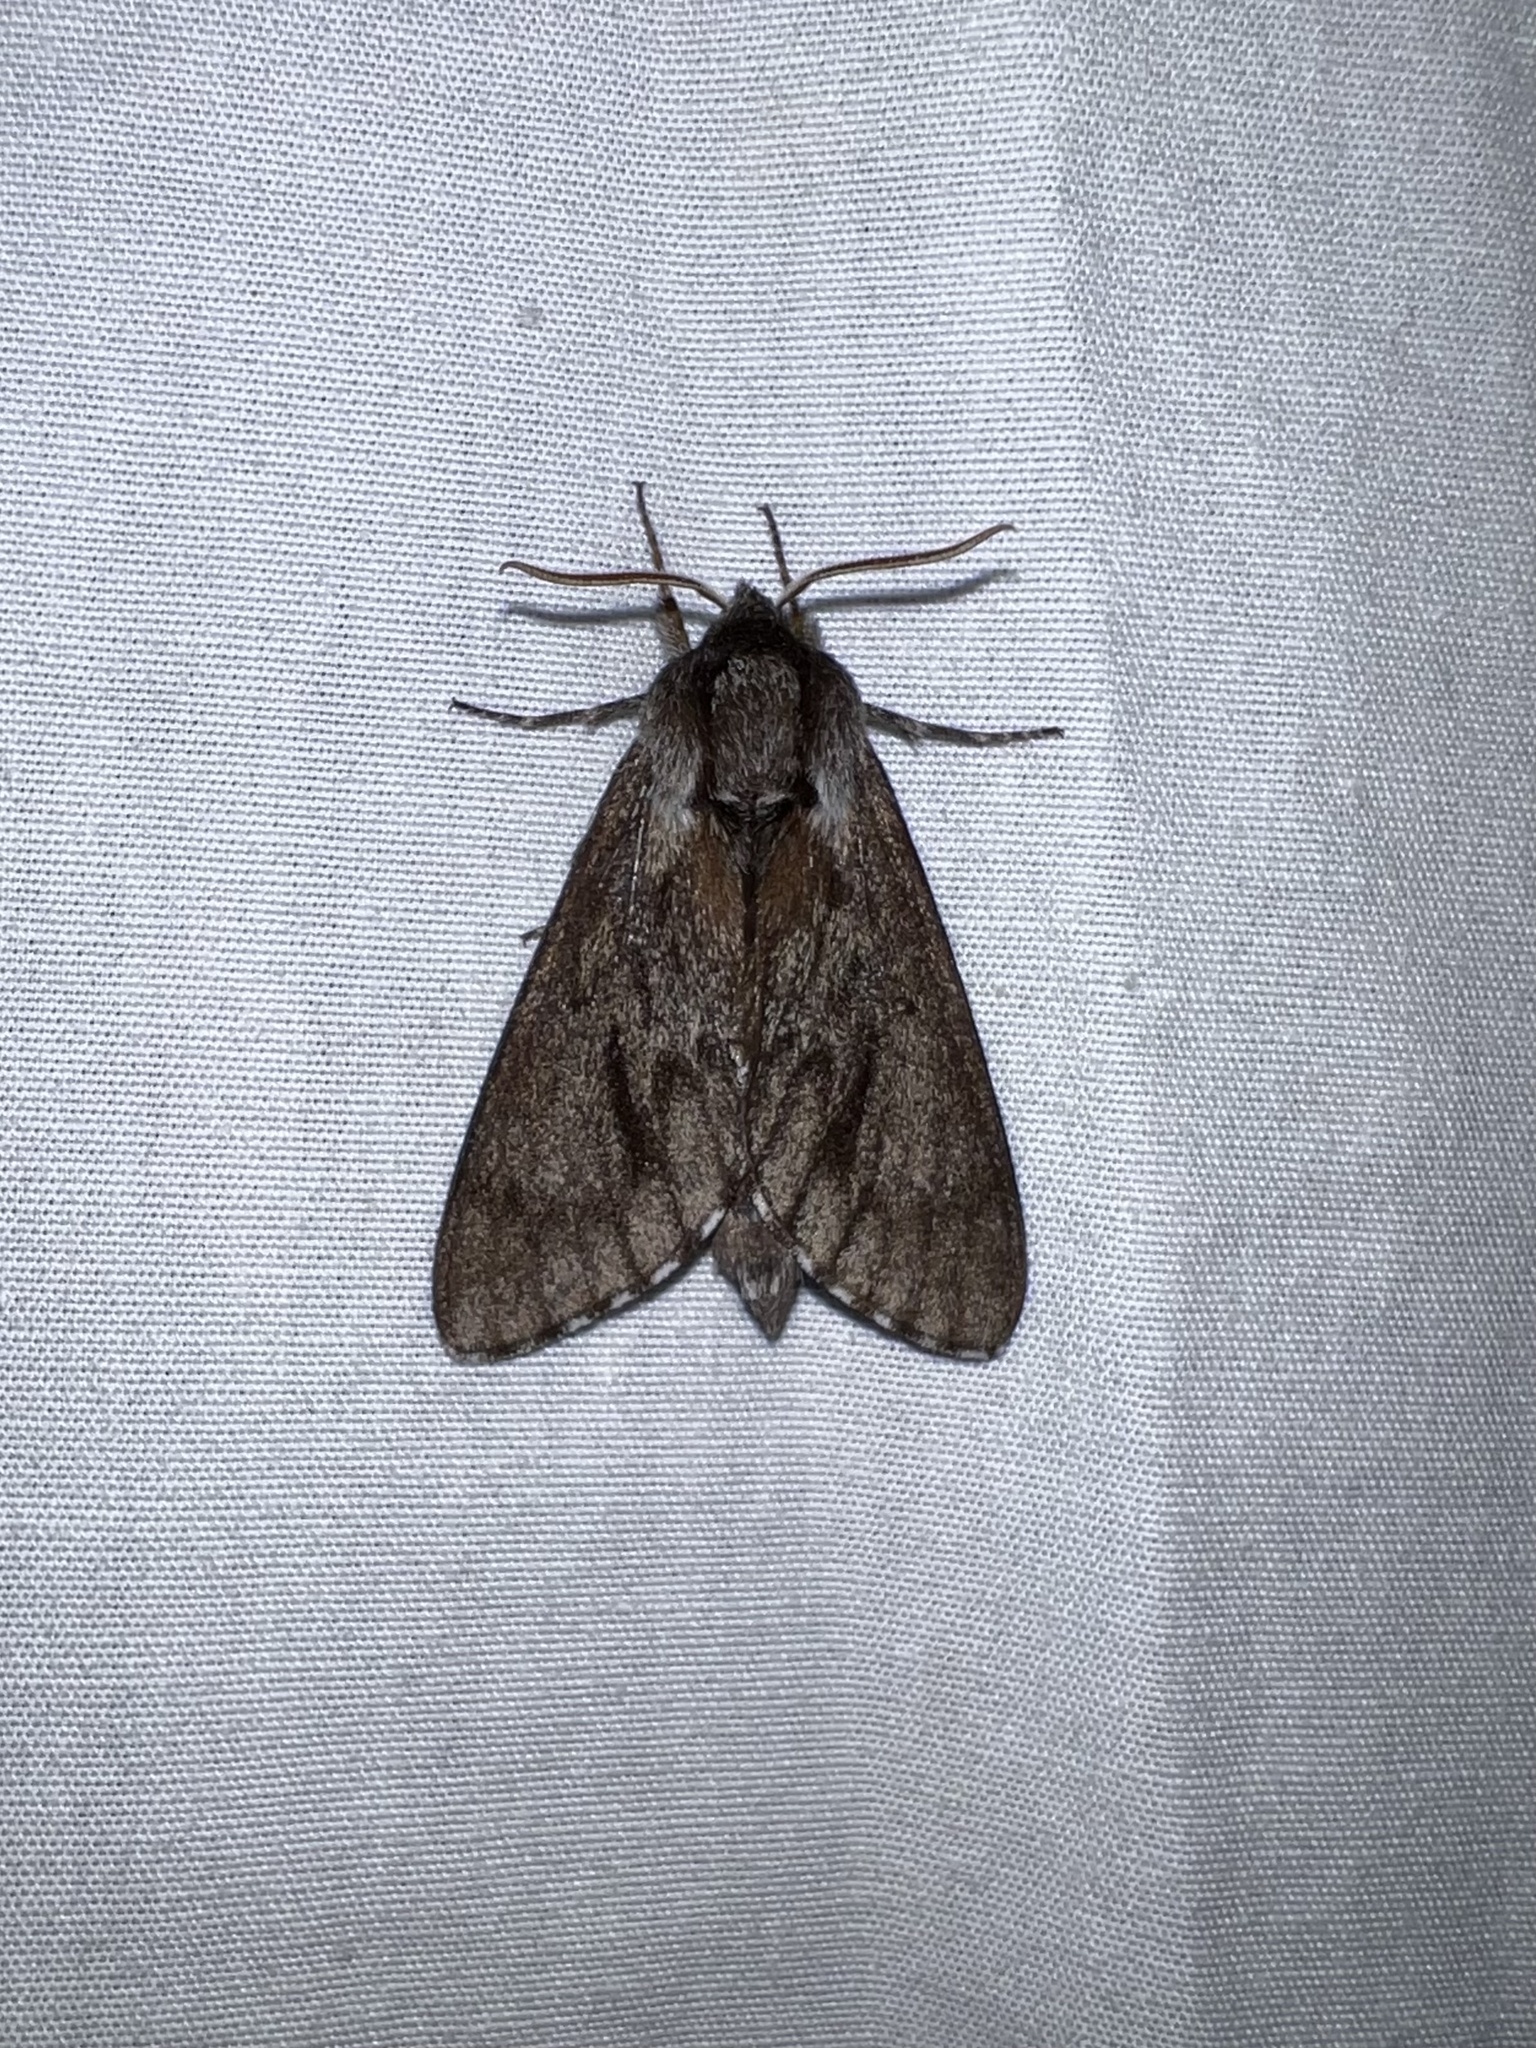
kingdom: Animalia
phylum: Arthropoda
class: Insecta
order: Lepidoptera
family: Sphingidae
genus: Lapara
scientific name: Lapara bombycoides
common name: Northern pine sphinx
